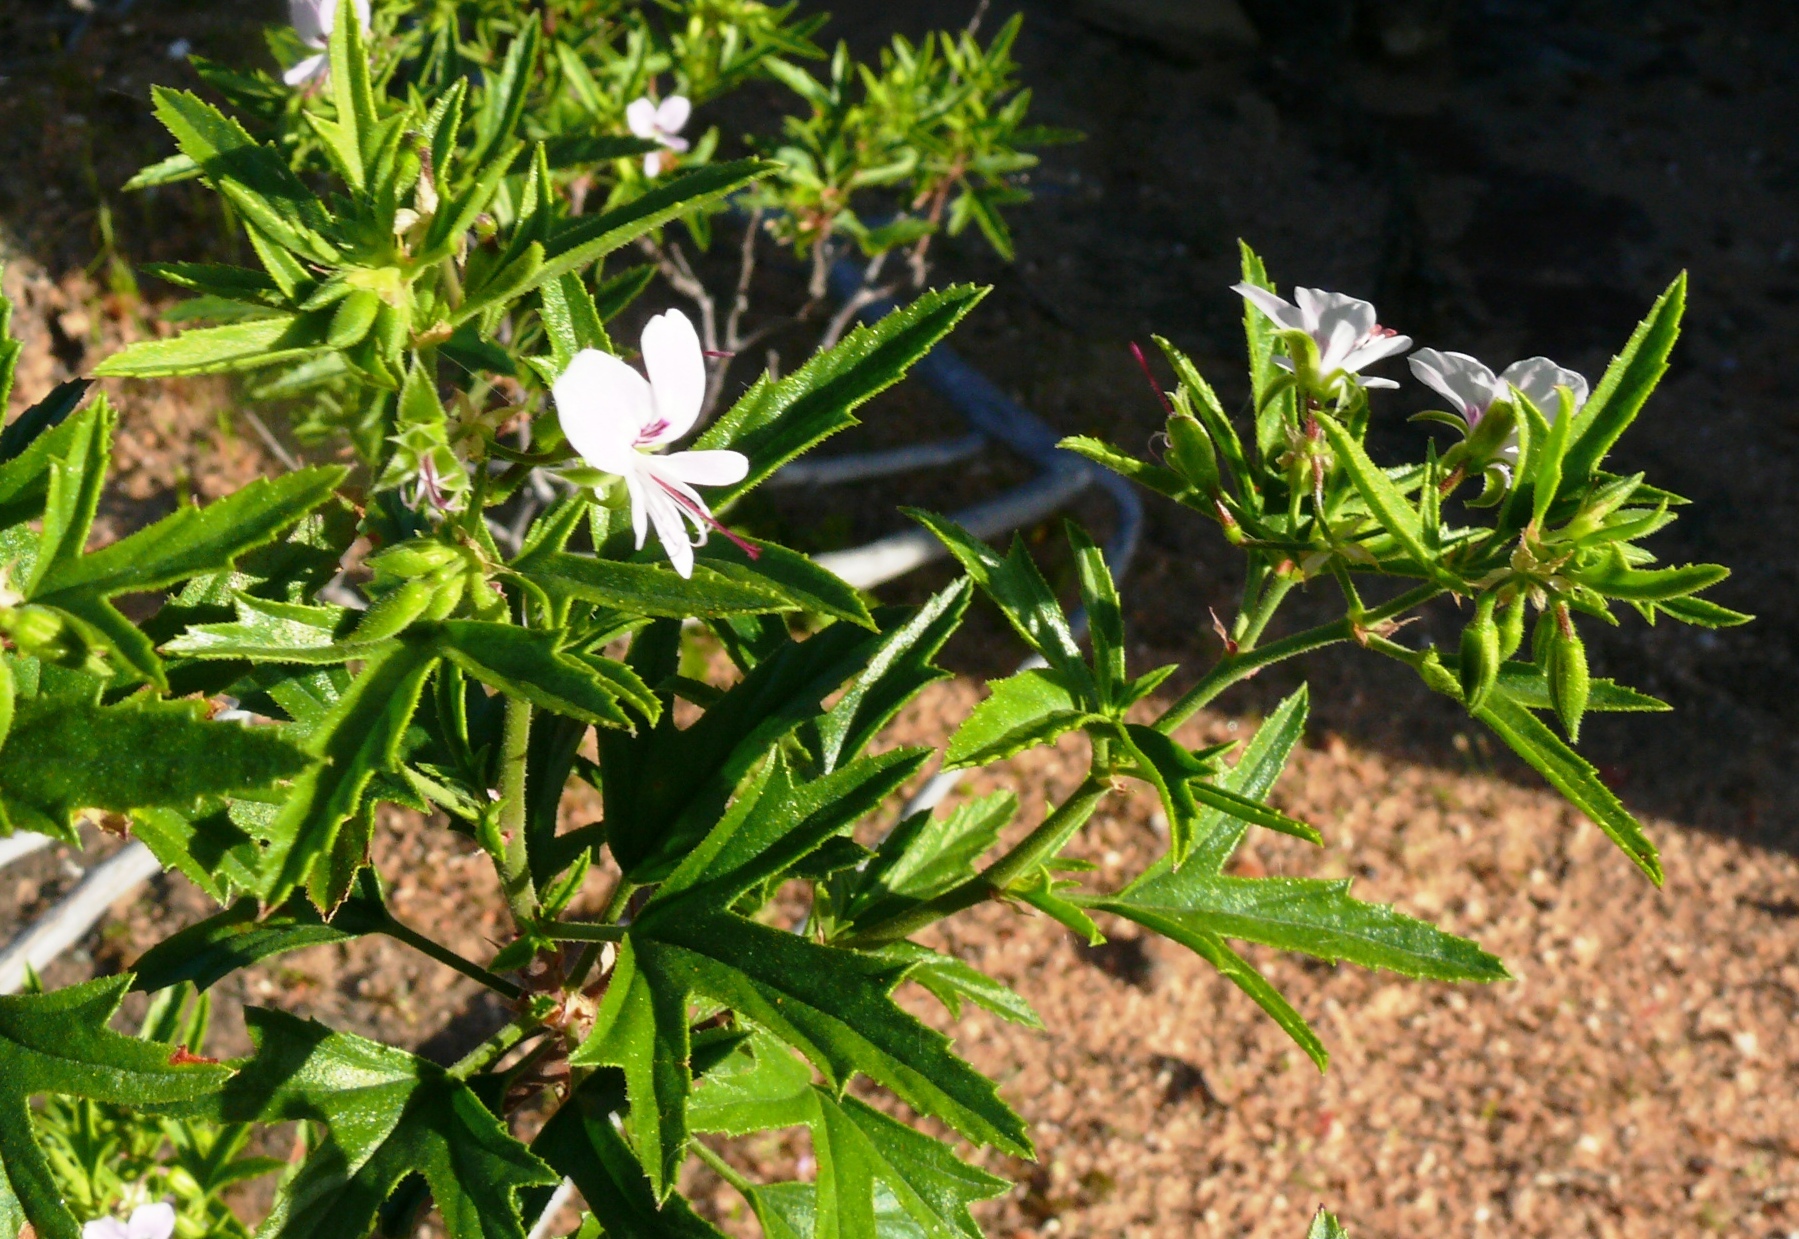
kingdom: Plantae
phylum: Tracheophyta
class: Magnoliopsida
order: Geraniales
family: Geraniaceae
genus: Pelargonium
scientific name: Pelargonium scabrum
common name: Apricot geranium
